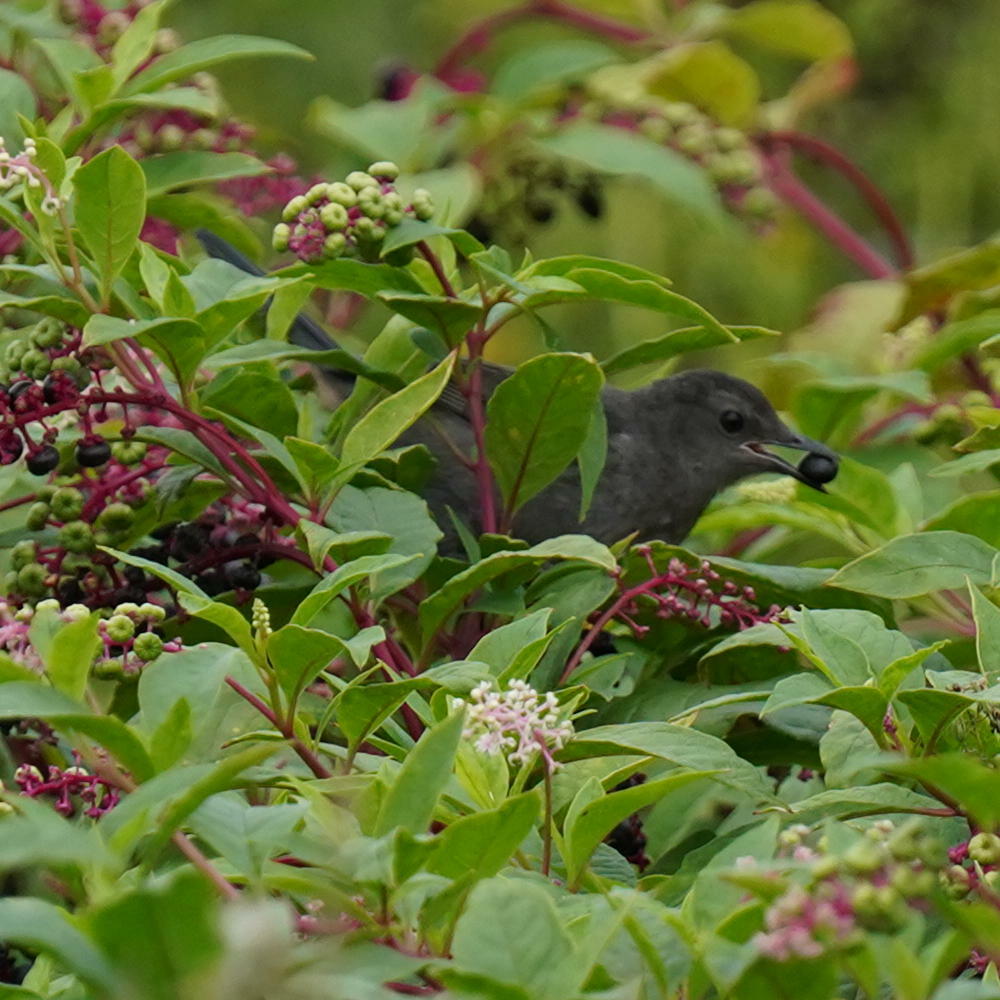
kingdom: Animalia
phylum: Chordata
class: Aves
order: Passeriformes
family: Mimidae
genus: Dumetella
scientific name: Dumetella carolinensis
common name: Gray catbird
